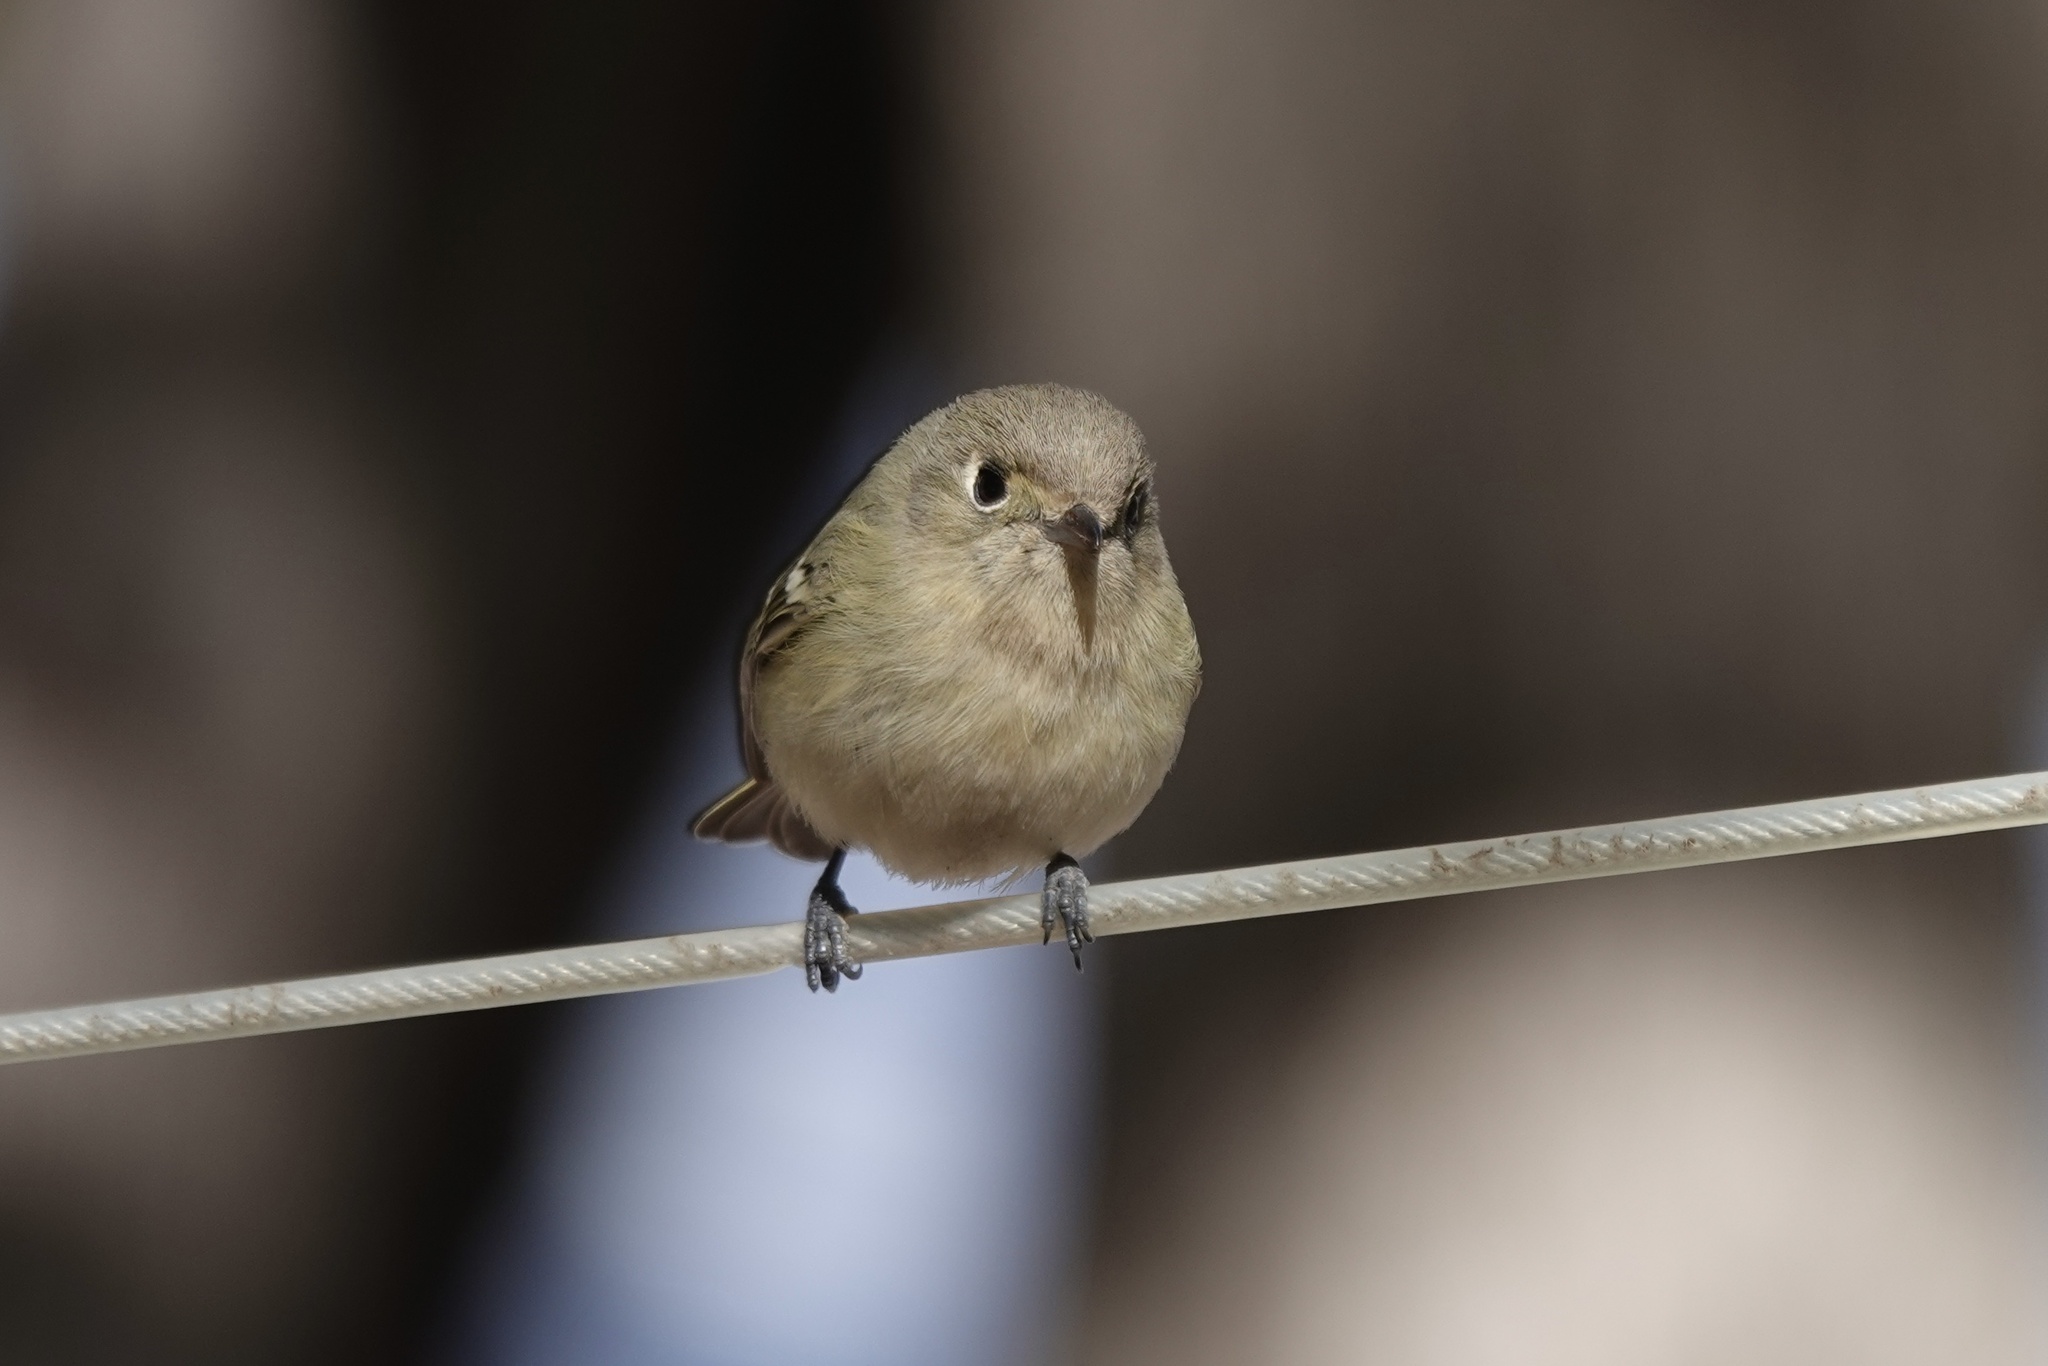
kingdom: Animalia
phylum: Chordata
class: Aves
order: Passeriformes
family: Vireonidae
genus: Vireo
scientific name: Vireo huttoni
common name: Hutton's vireo
